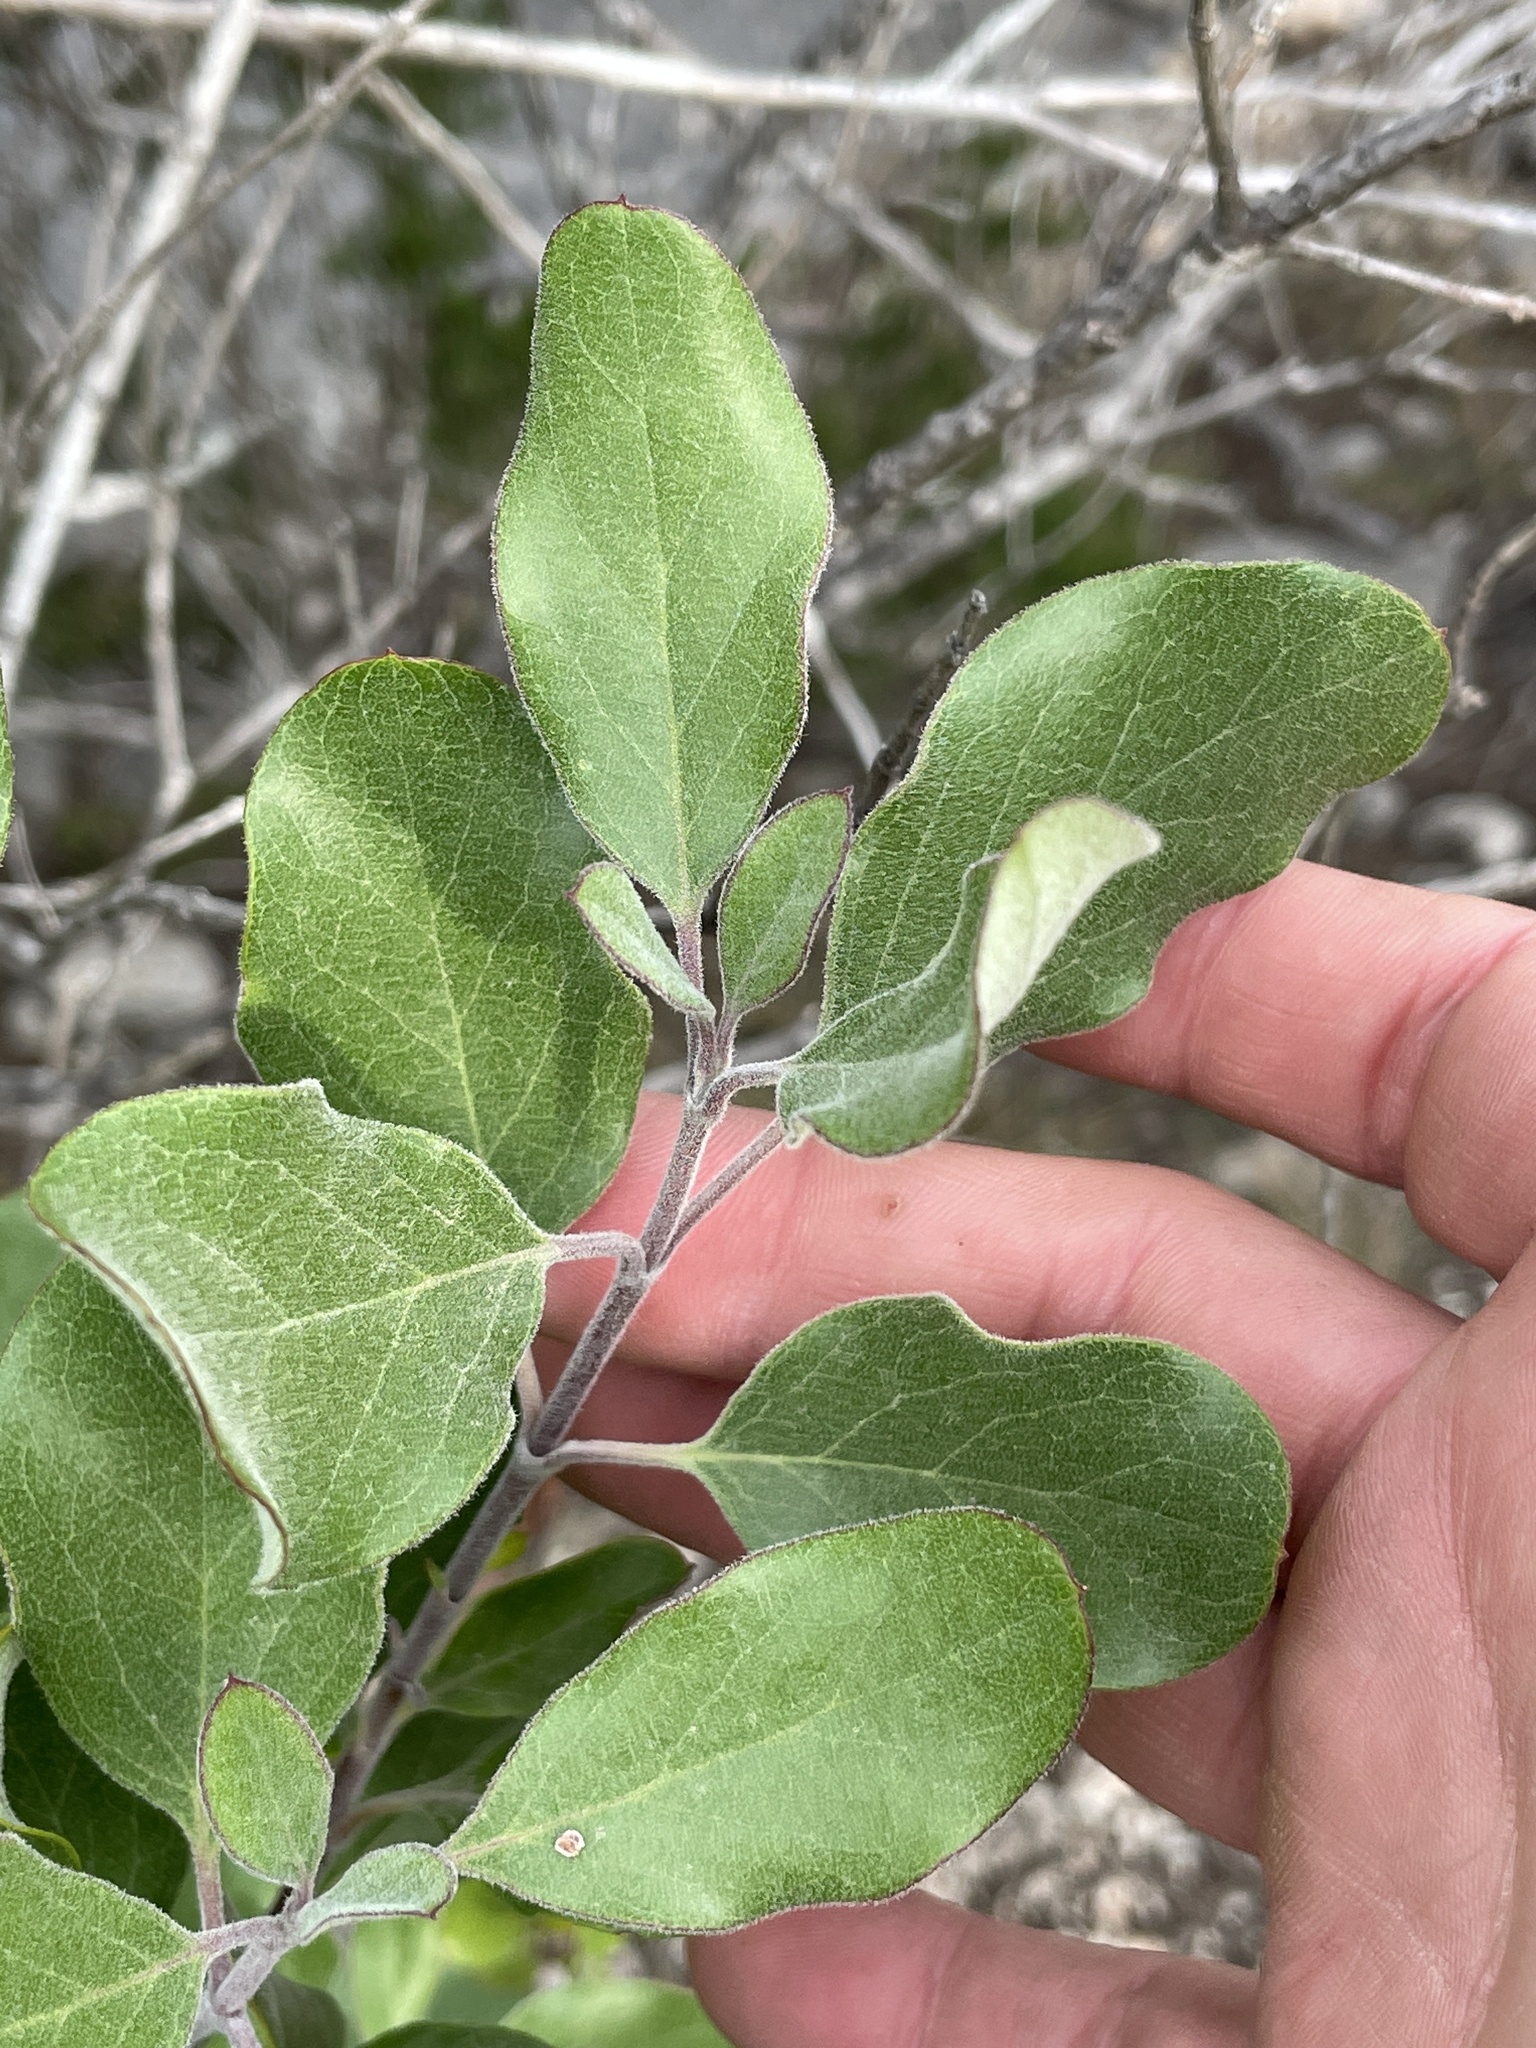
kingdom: Plantae
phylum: Tracheophyta
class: Magnoliopsida
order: Garryales
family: Garryaceae
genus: Garrya
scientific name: Garrya lindheimeri
